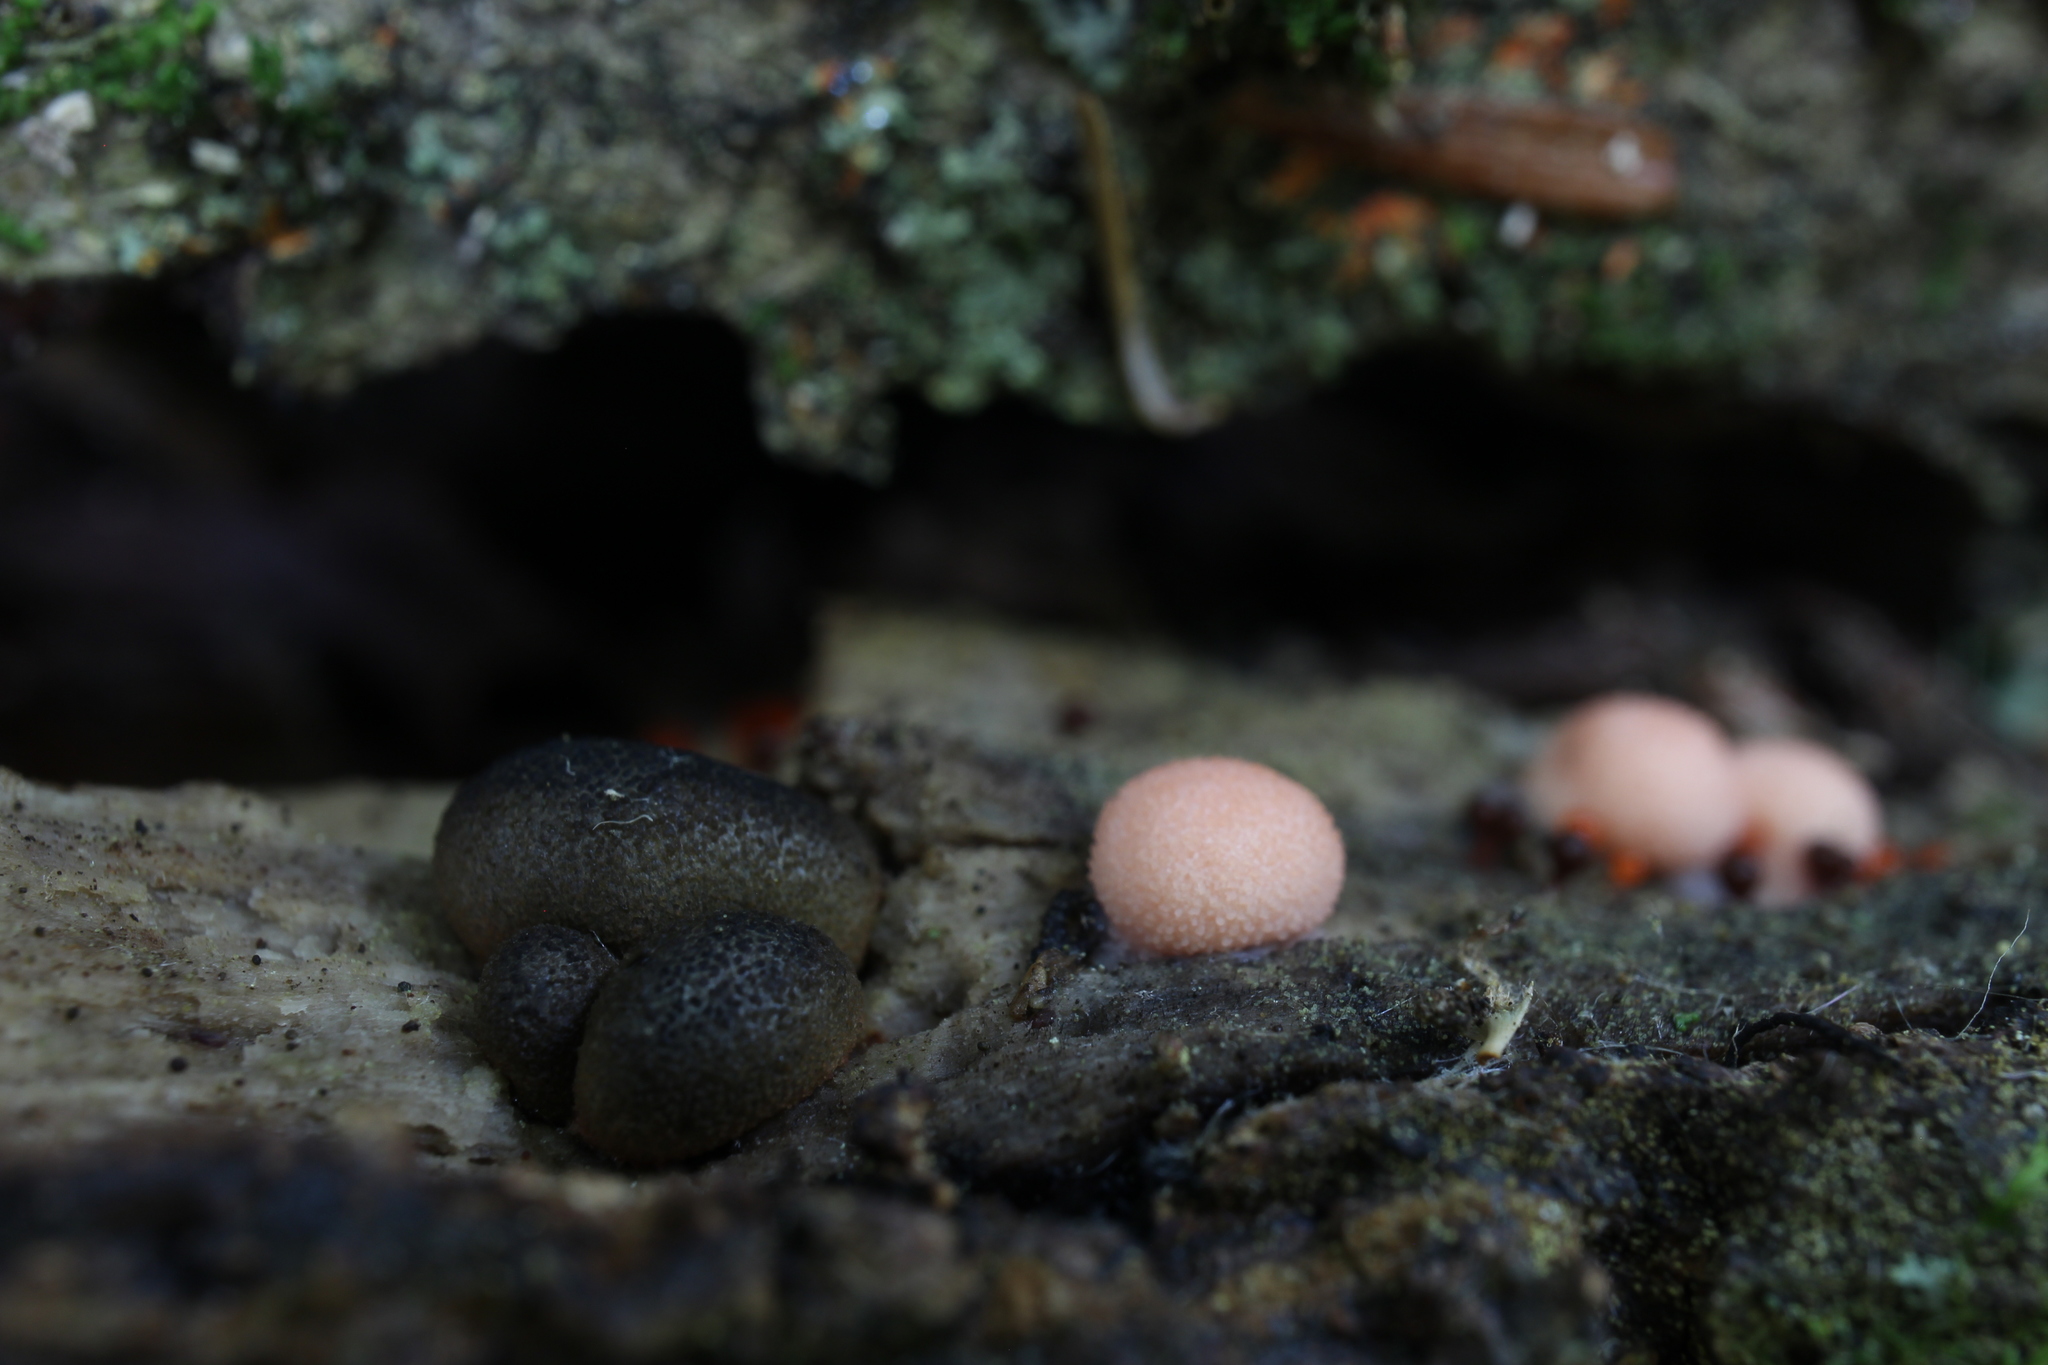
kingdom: Protozoa
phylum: Mycetozoa
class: Myxomycetes
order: Cribrariales
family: Tubiferaceae
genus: Lycogala
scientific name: Lycogala epidendrum
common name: Wolf's milk
